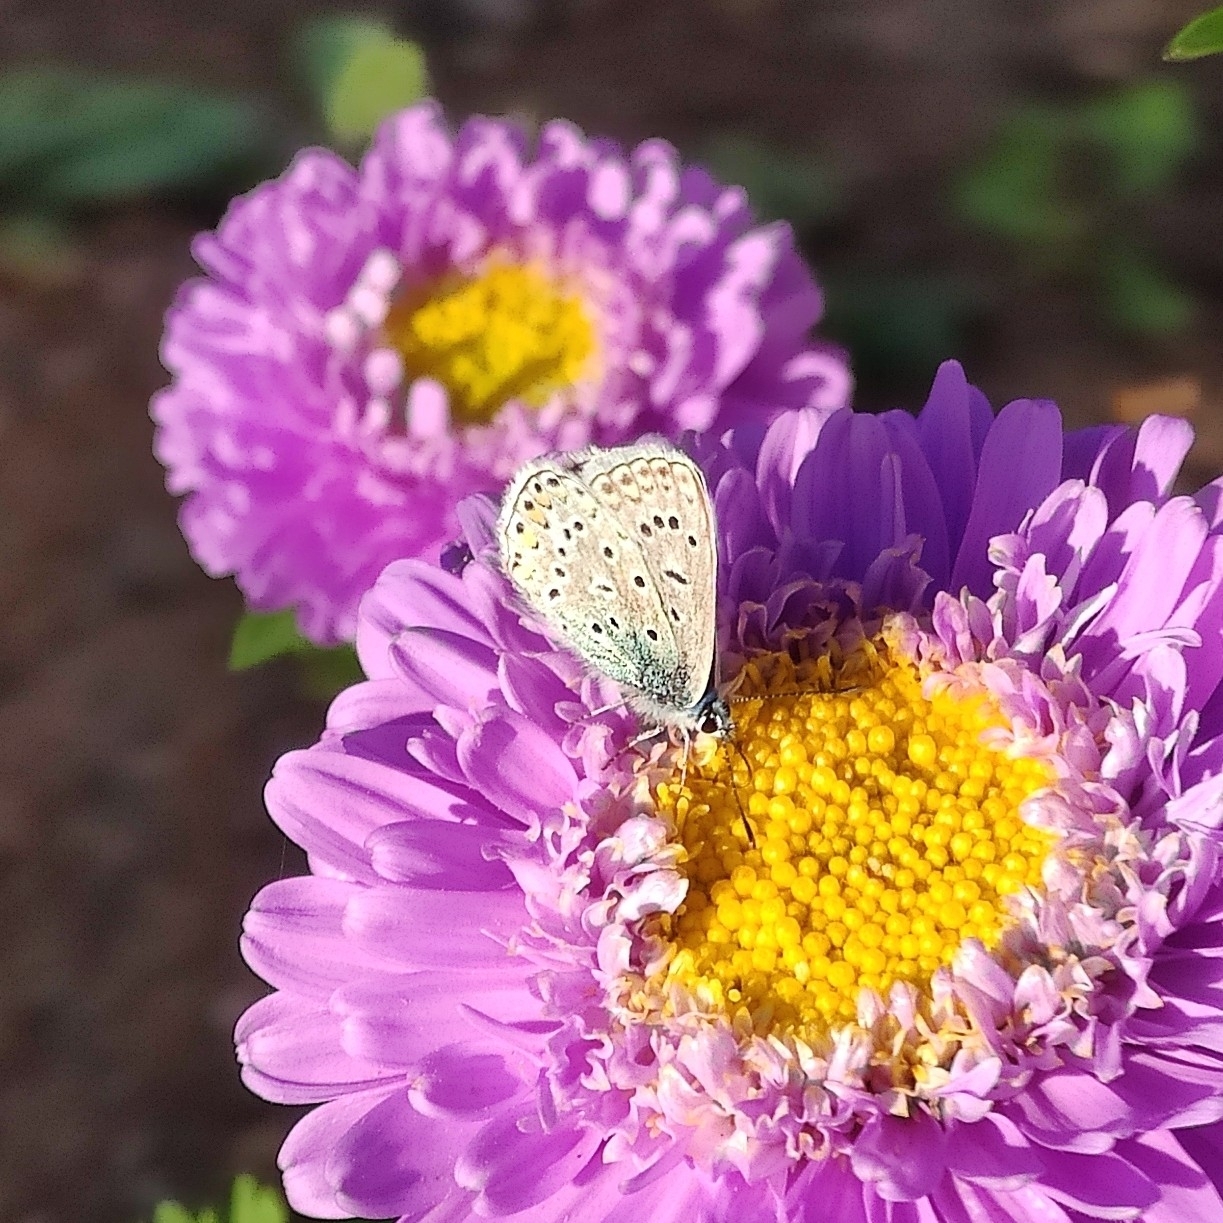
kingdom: Animalia
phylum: Arthropoda
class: Insecta
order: Lepidoptera
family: Lycaenidae
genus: Polyommatus
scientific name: Polyommatus icarus
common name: Common blue
